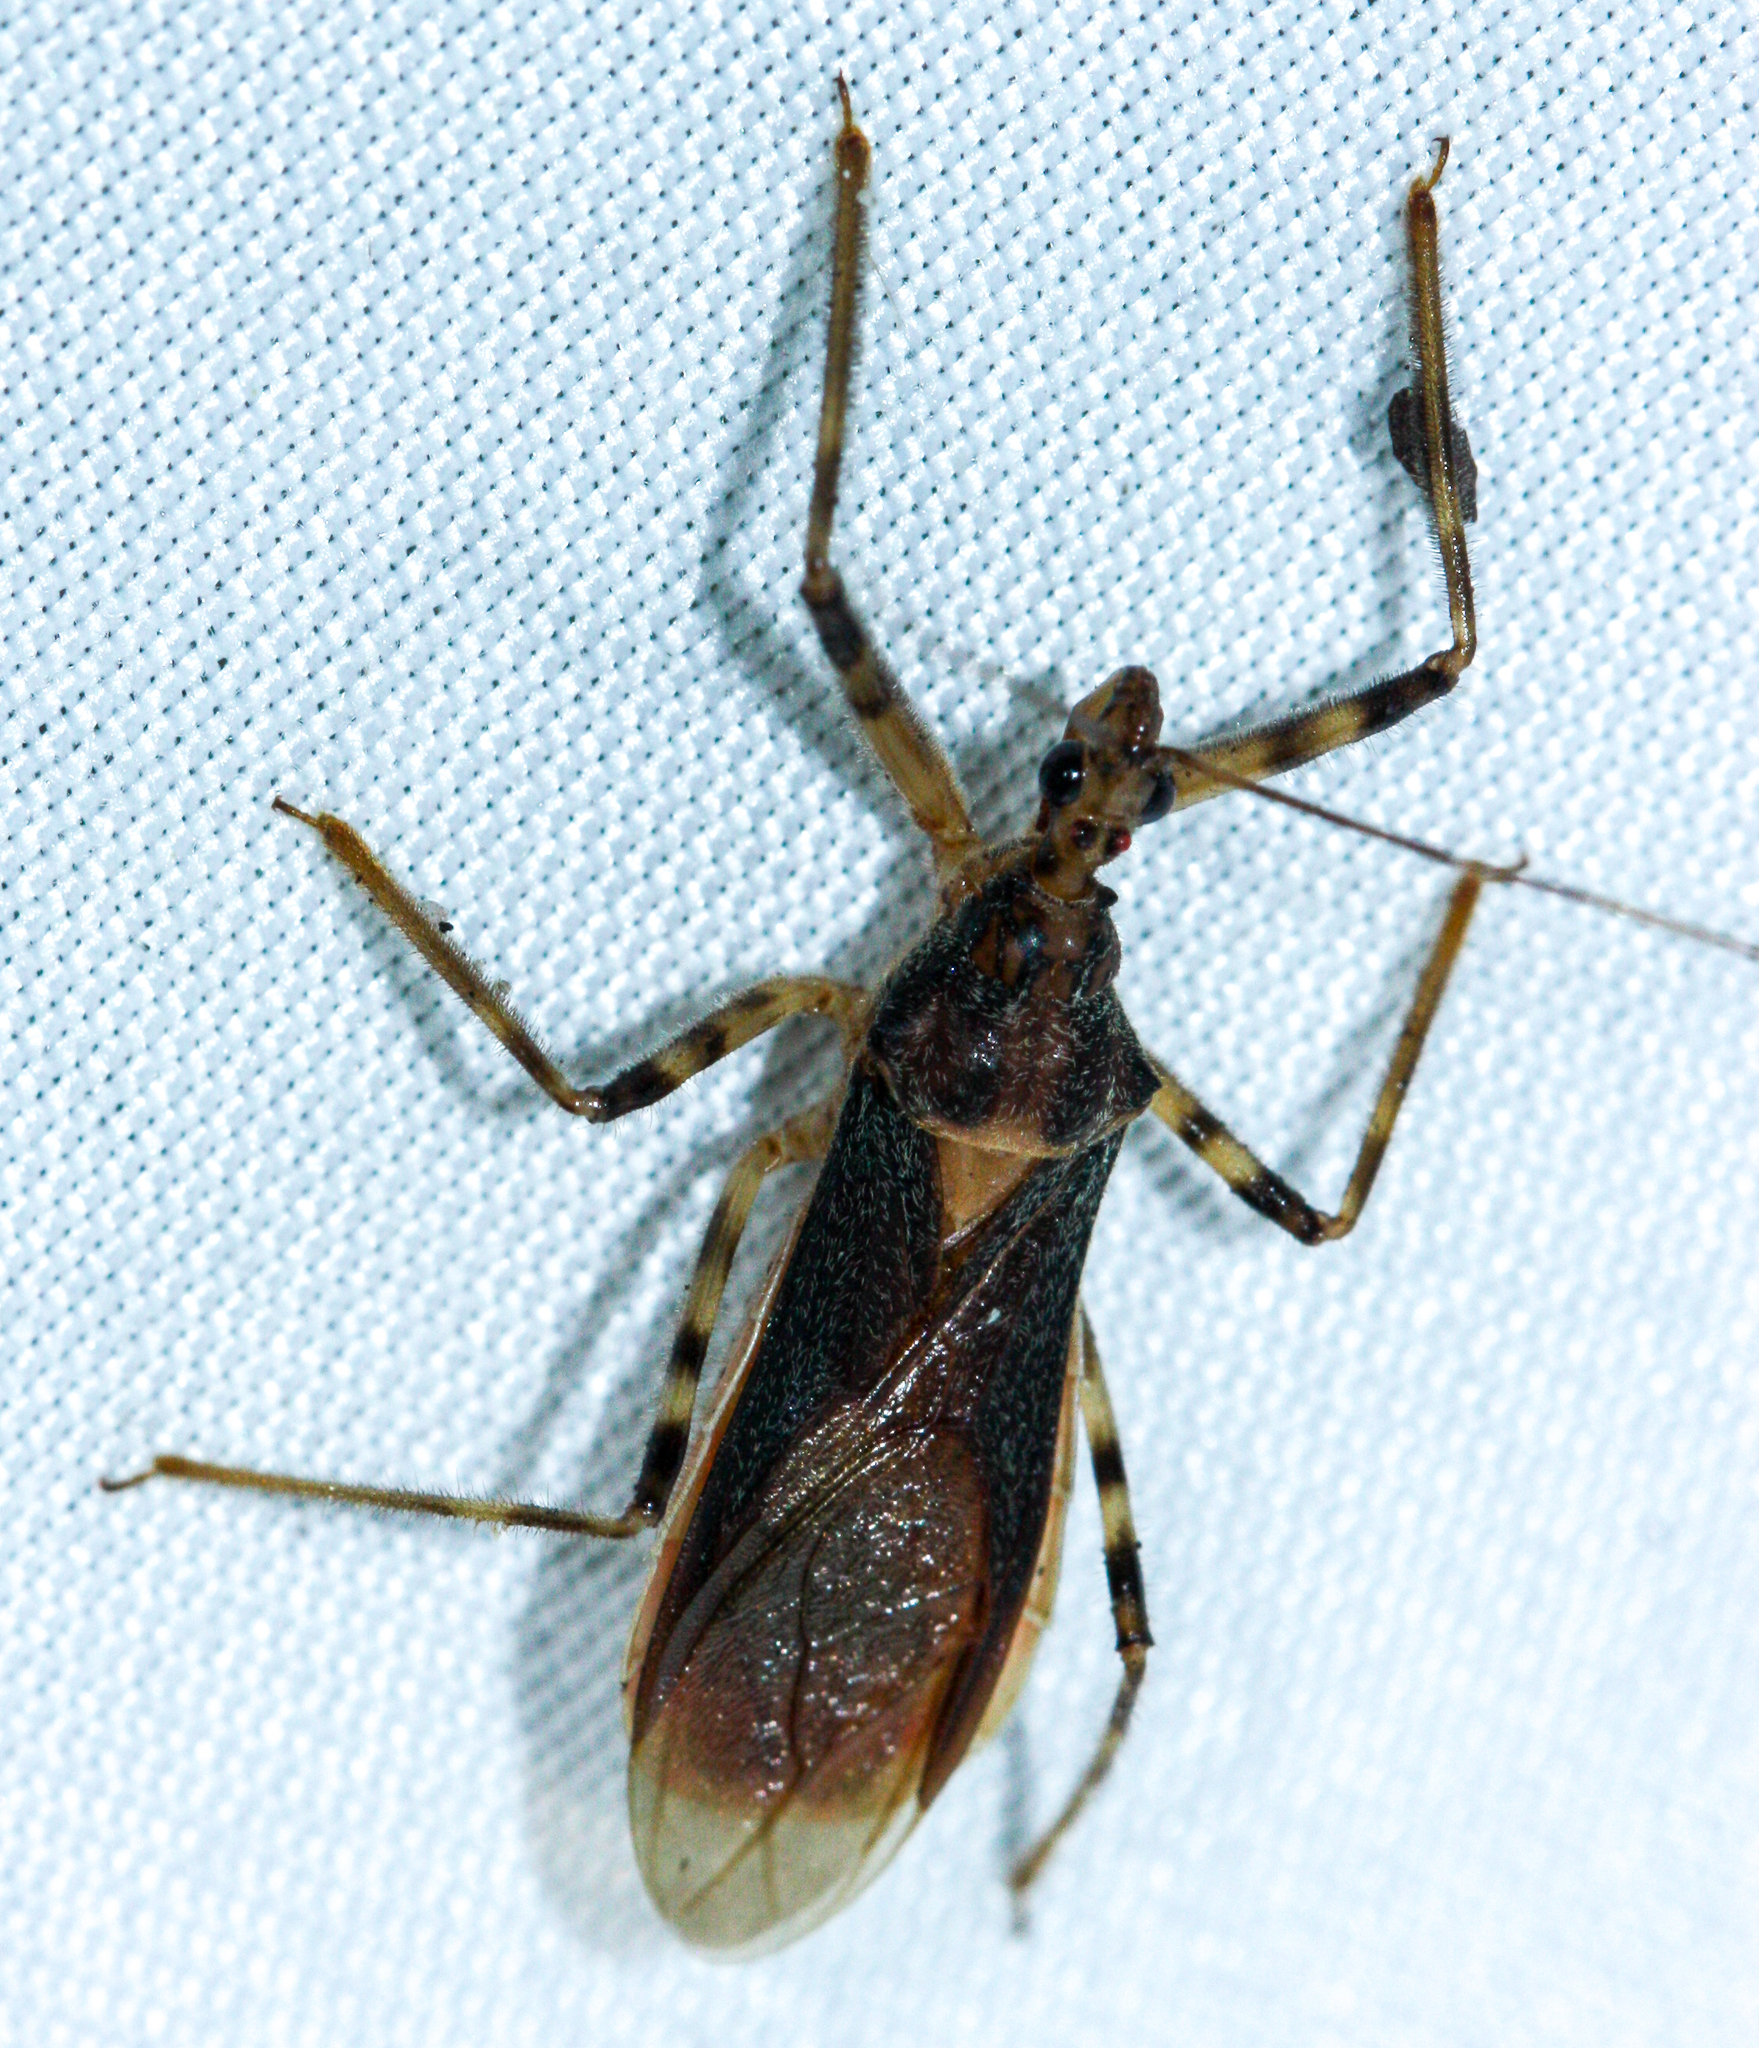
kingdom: Animalia
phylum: Arthropoda
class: Insecta
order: Hemiptera
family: Reduviidae
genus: Castolus
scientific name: Castolus ferox
